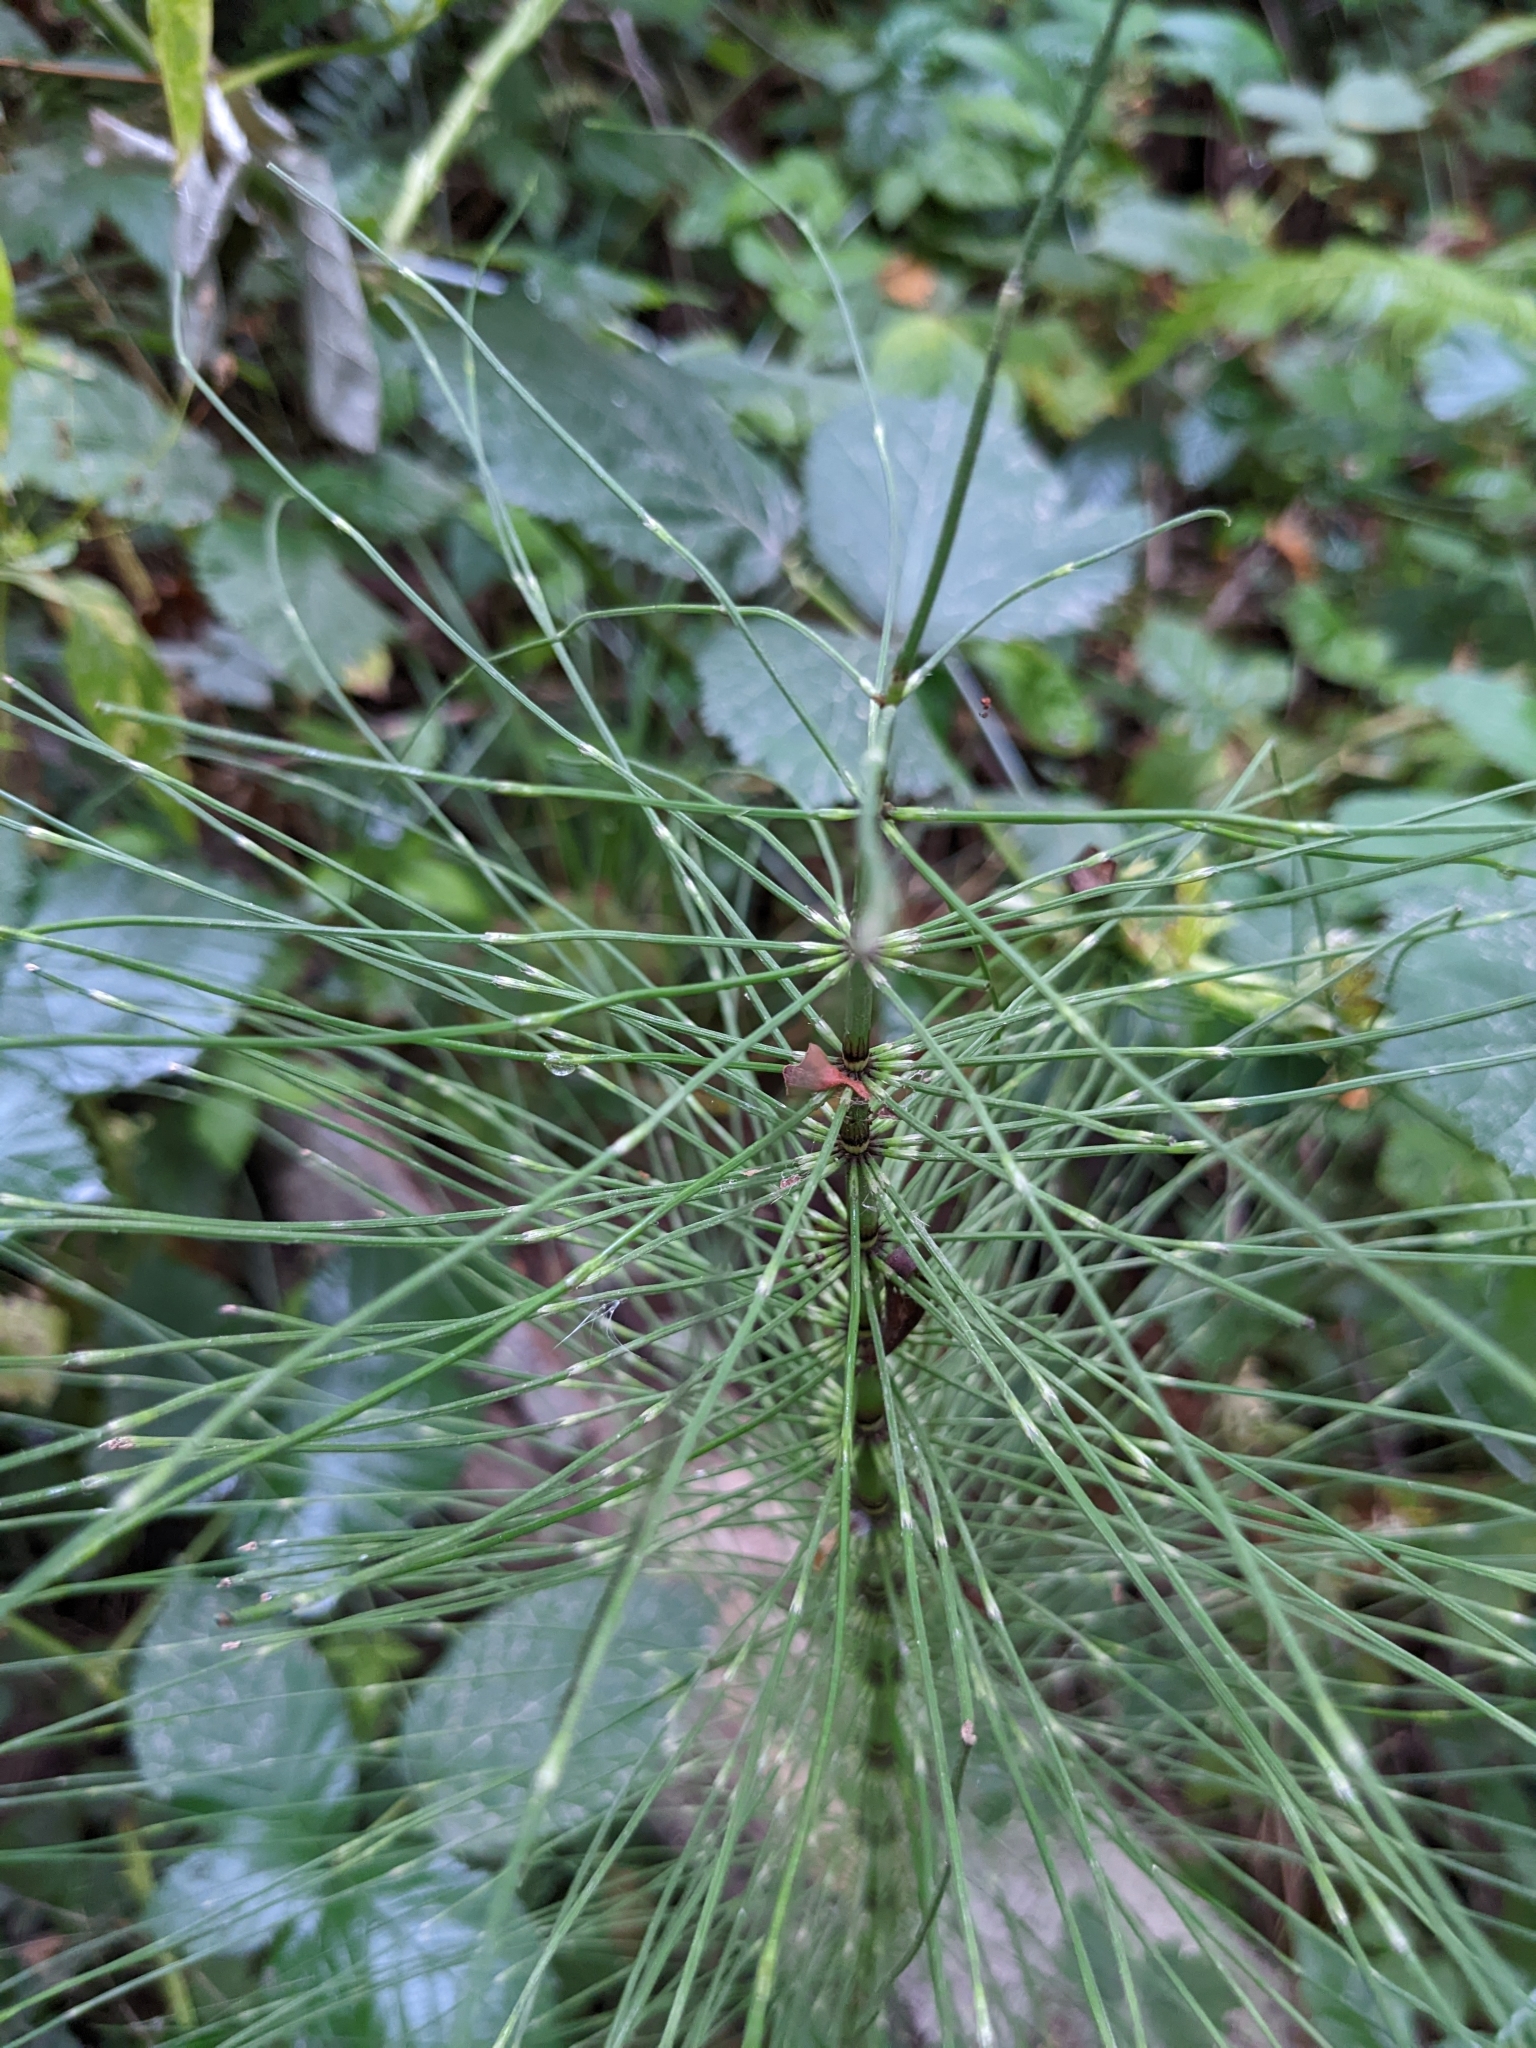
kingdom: Plantae
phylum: Tracheophyta
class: Polypodiopsida
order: Equisetales
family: Equisetaceae
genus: Equisetum
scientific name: Equisetum telmateia
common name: Great horsetail
